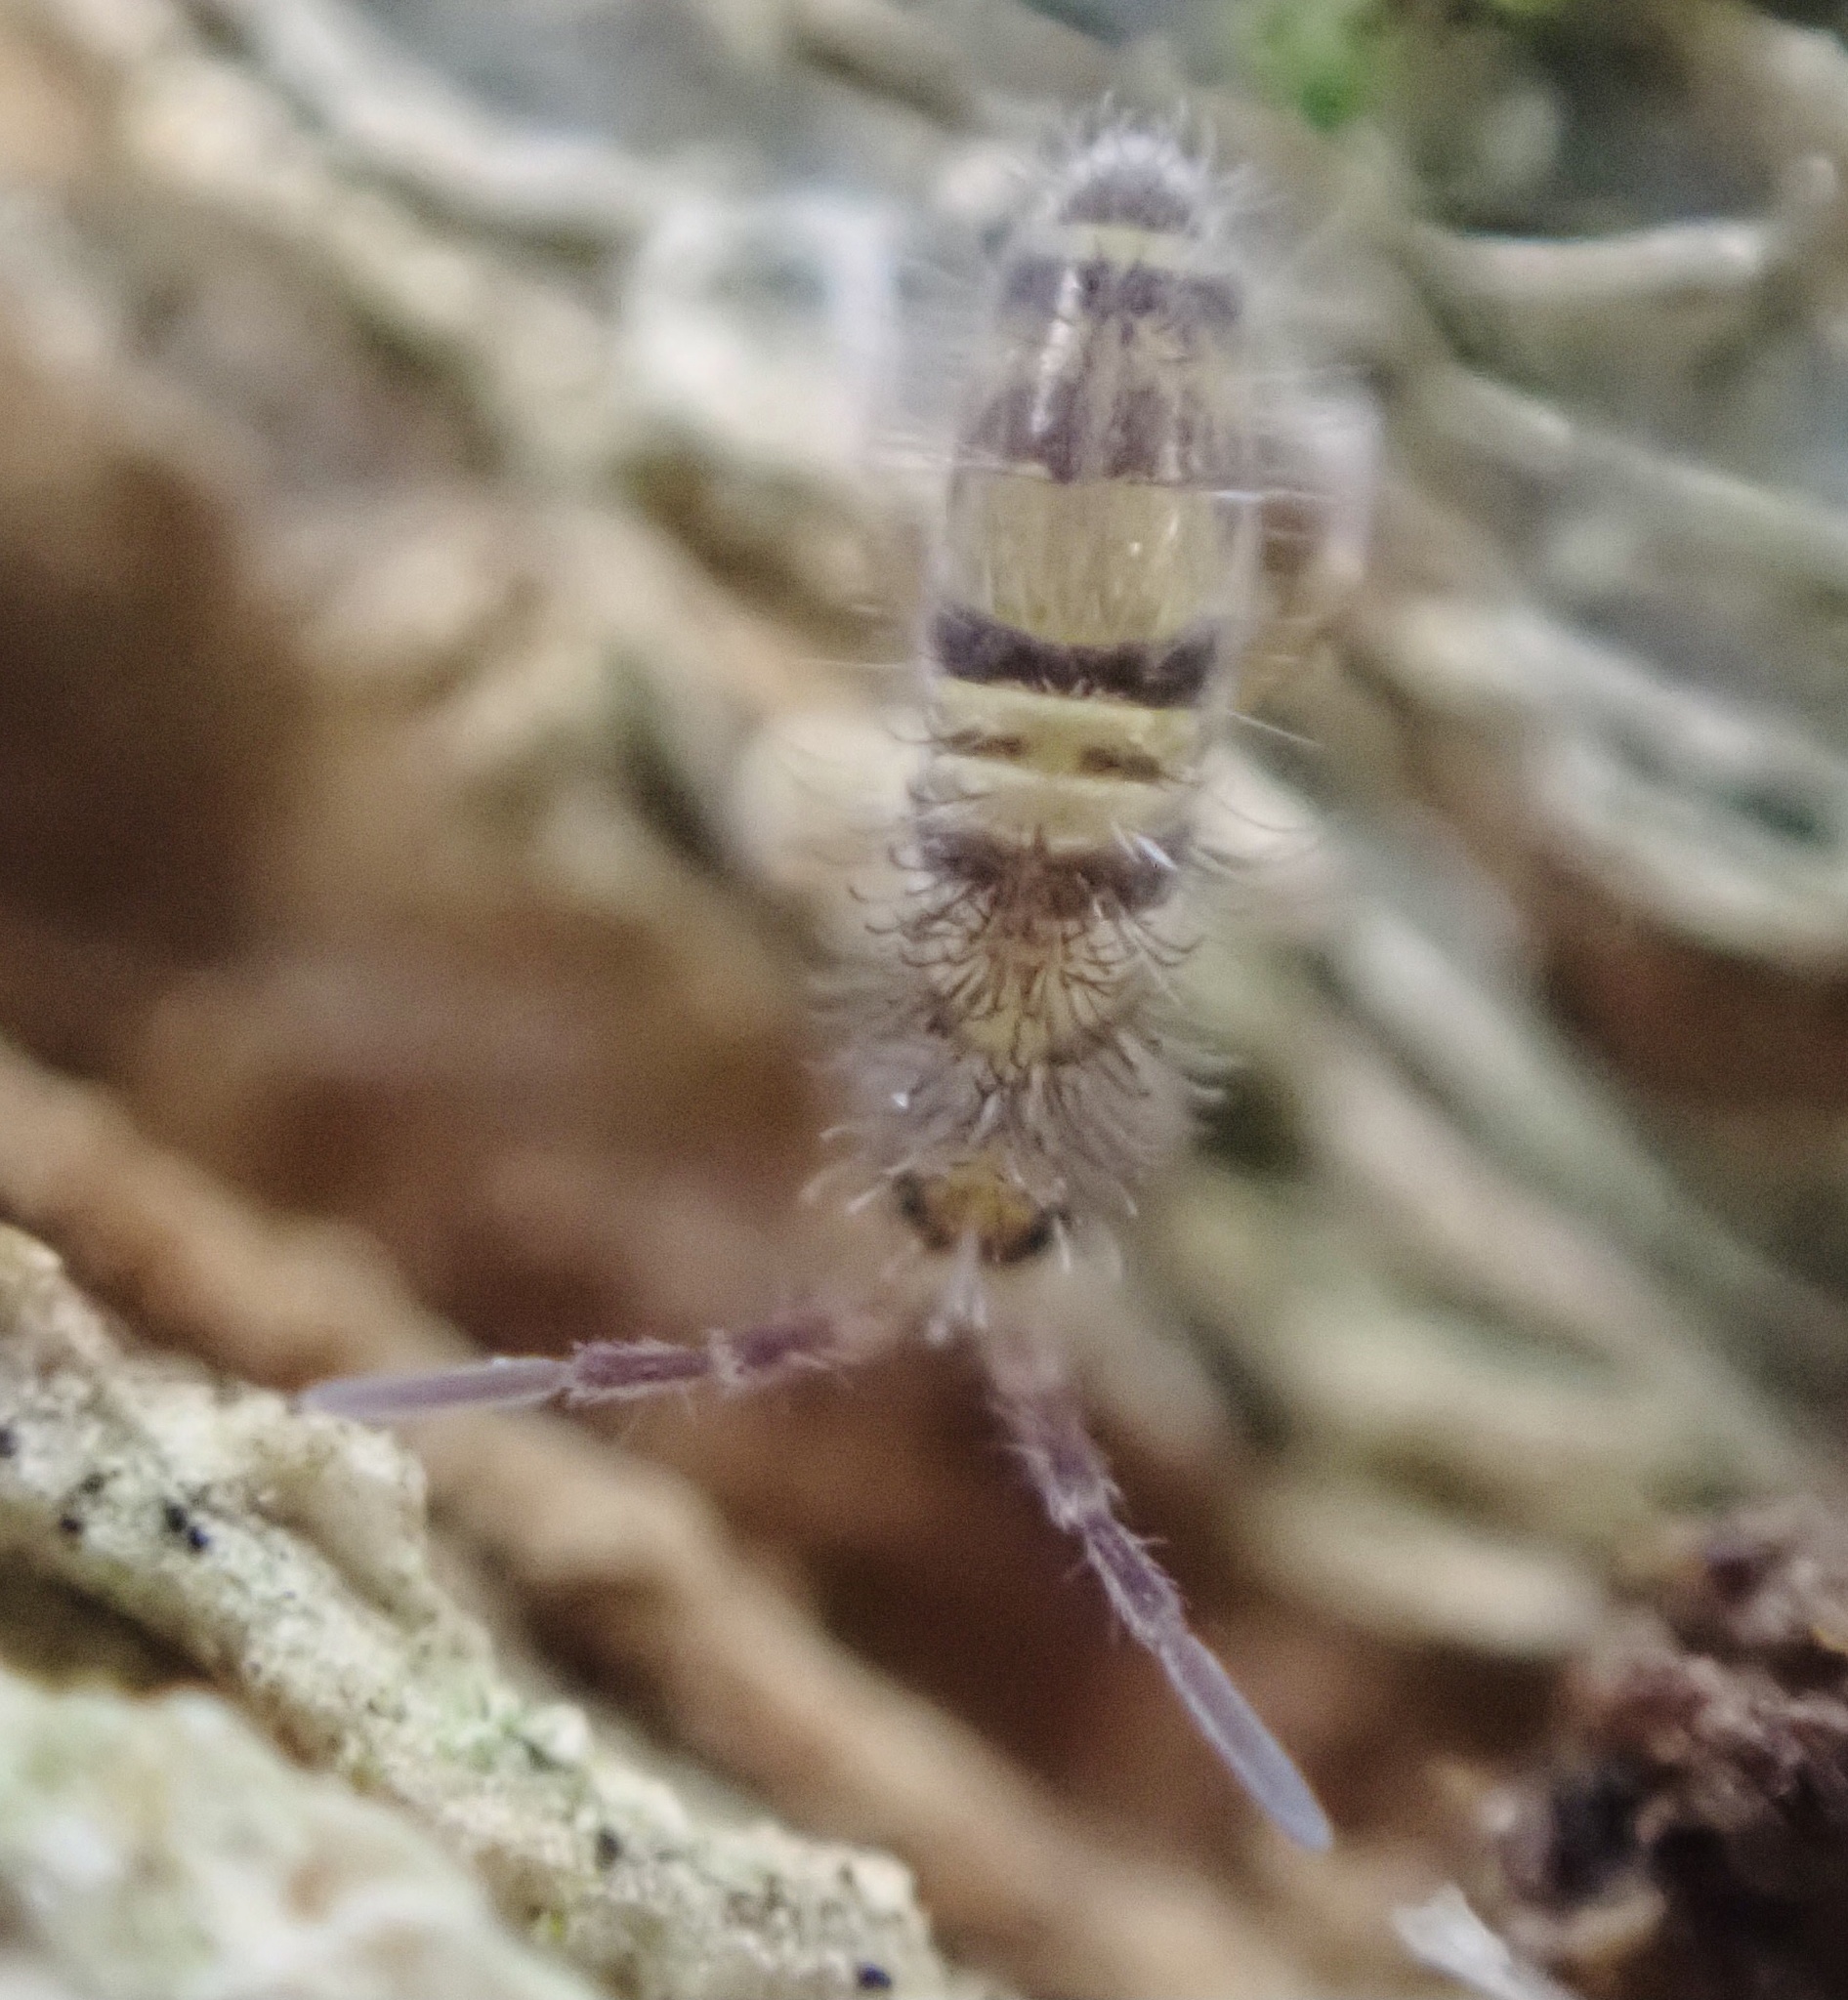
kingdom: Animalia
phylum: Arthropoda
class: Collembola
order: Entomobryomorpha
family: Entomobryidae
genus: Homidia
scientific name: Homidia sauteri
